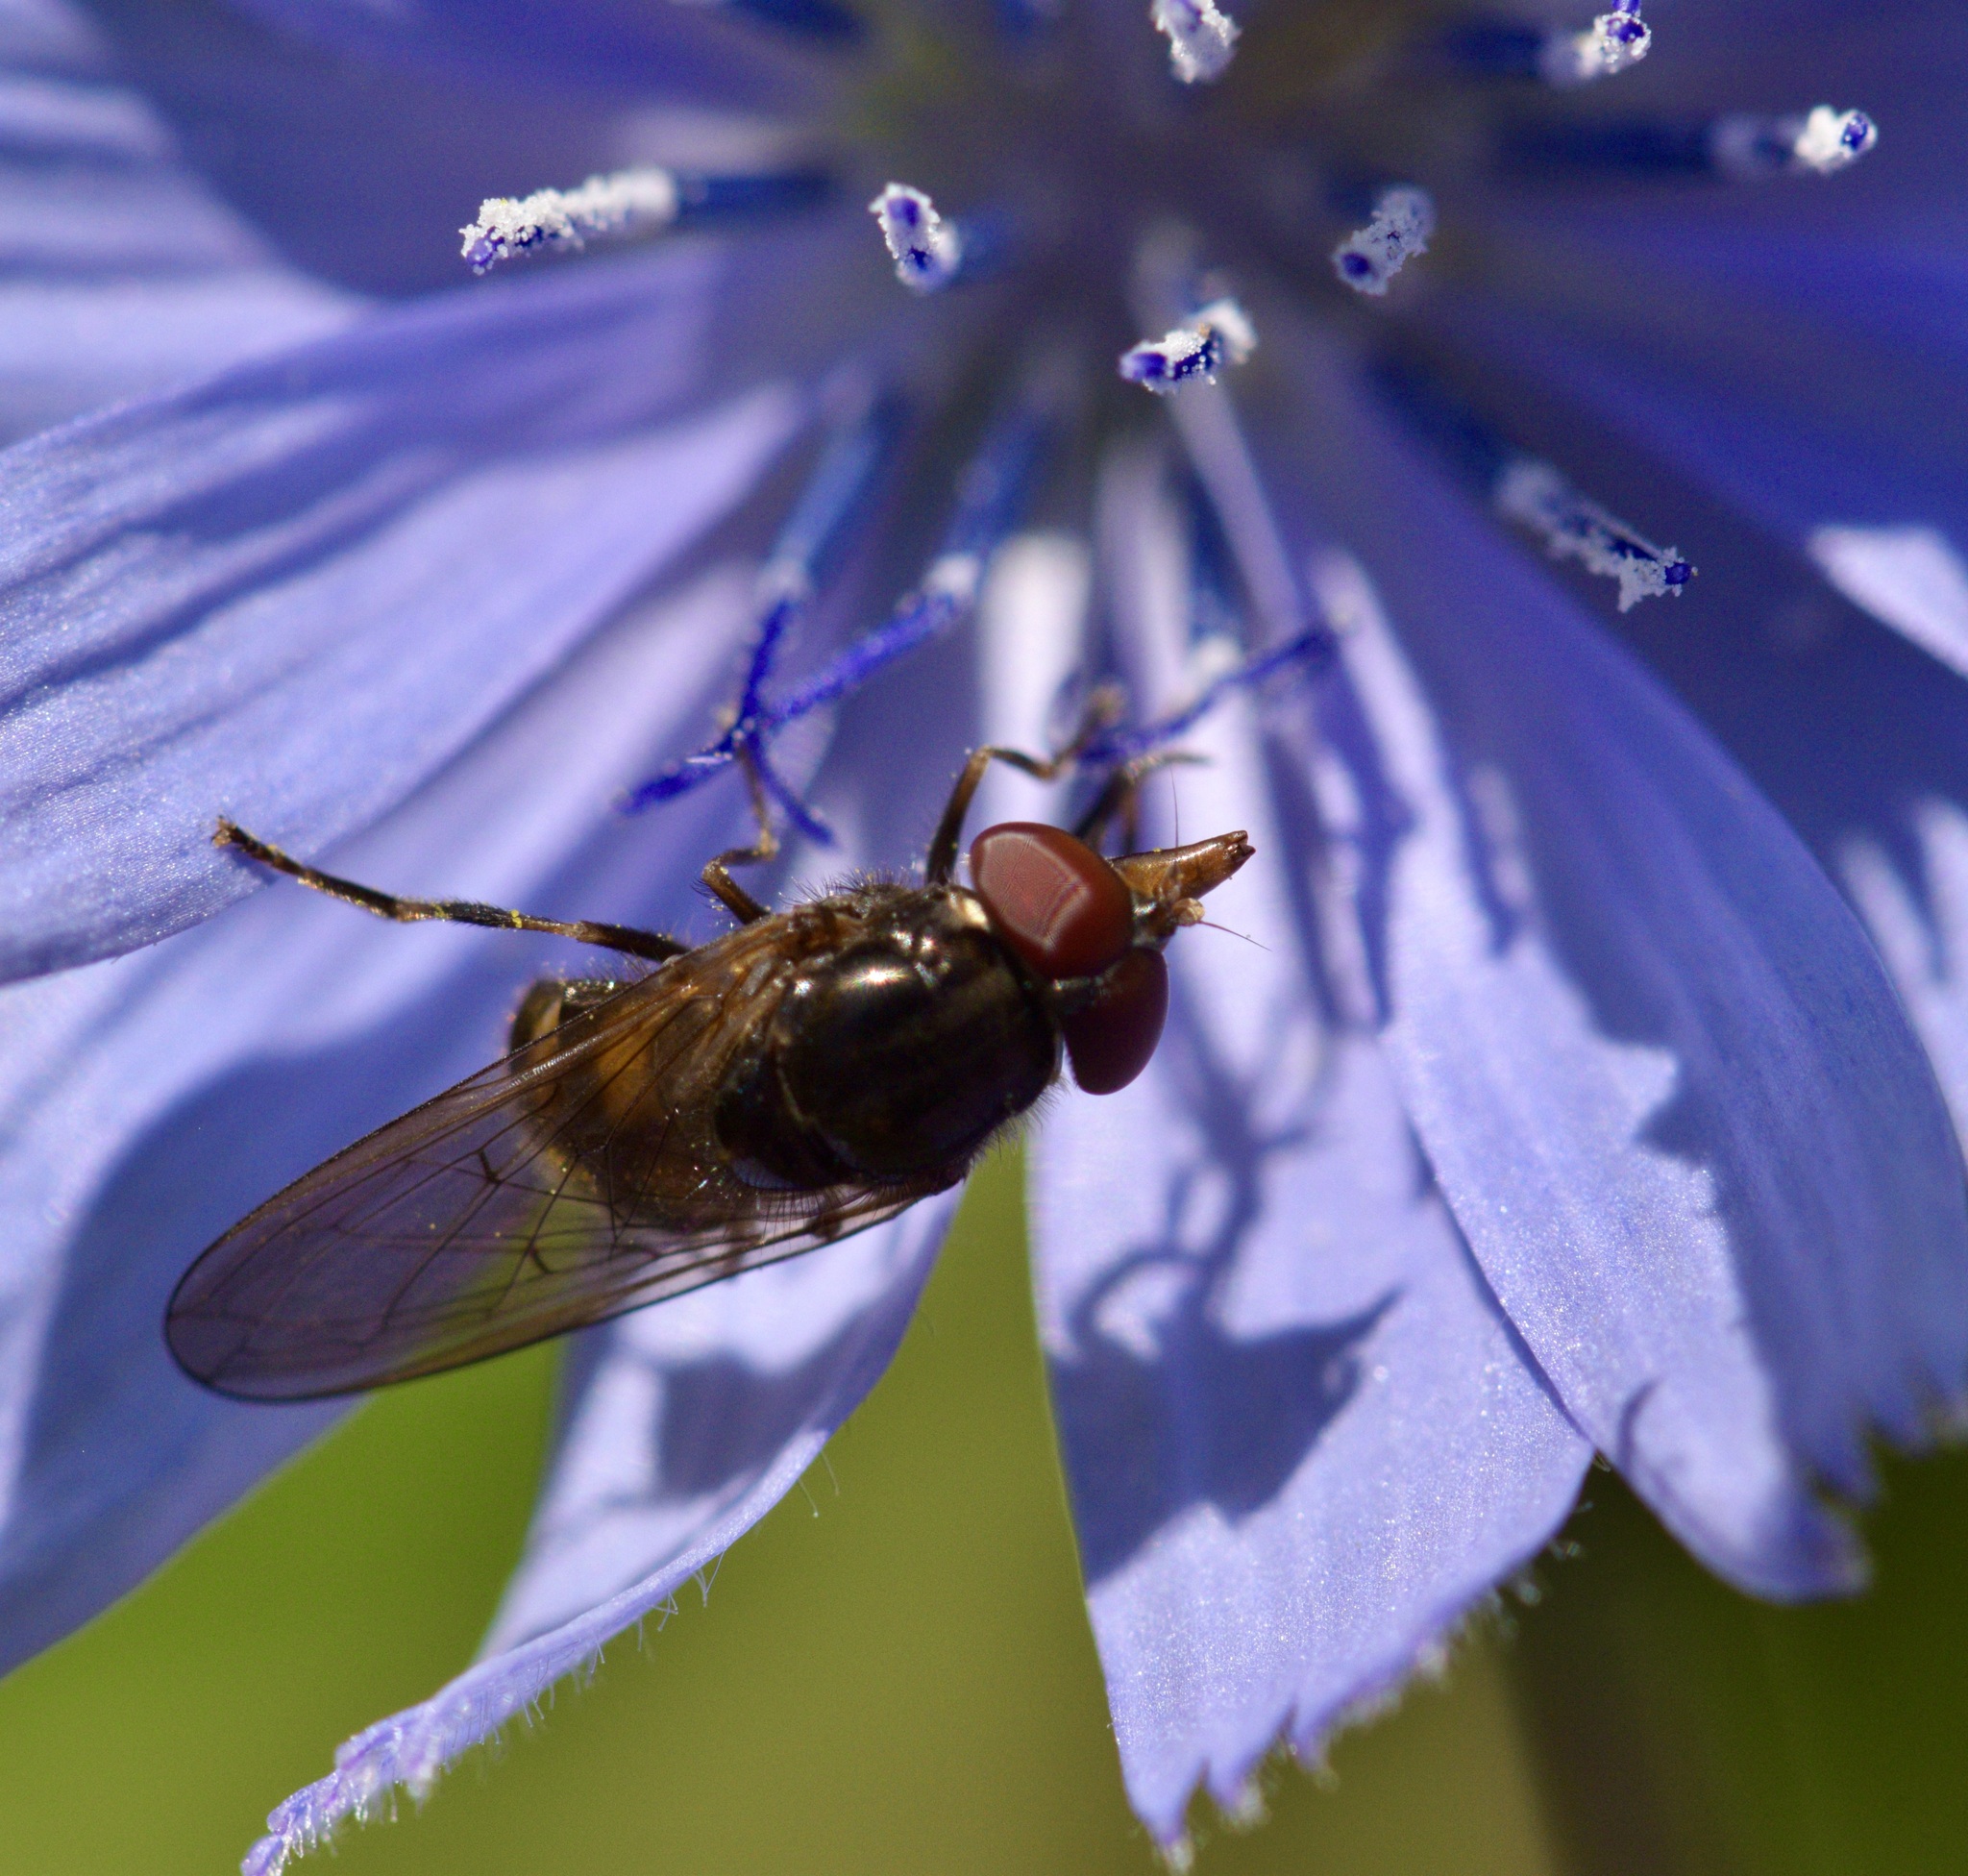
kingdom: Animalia
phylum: Arthropoda
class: Insecta
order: Diptera
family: Syrphidae
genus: Rhingia
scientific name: Rhingia nasica
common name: American snout fly
